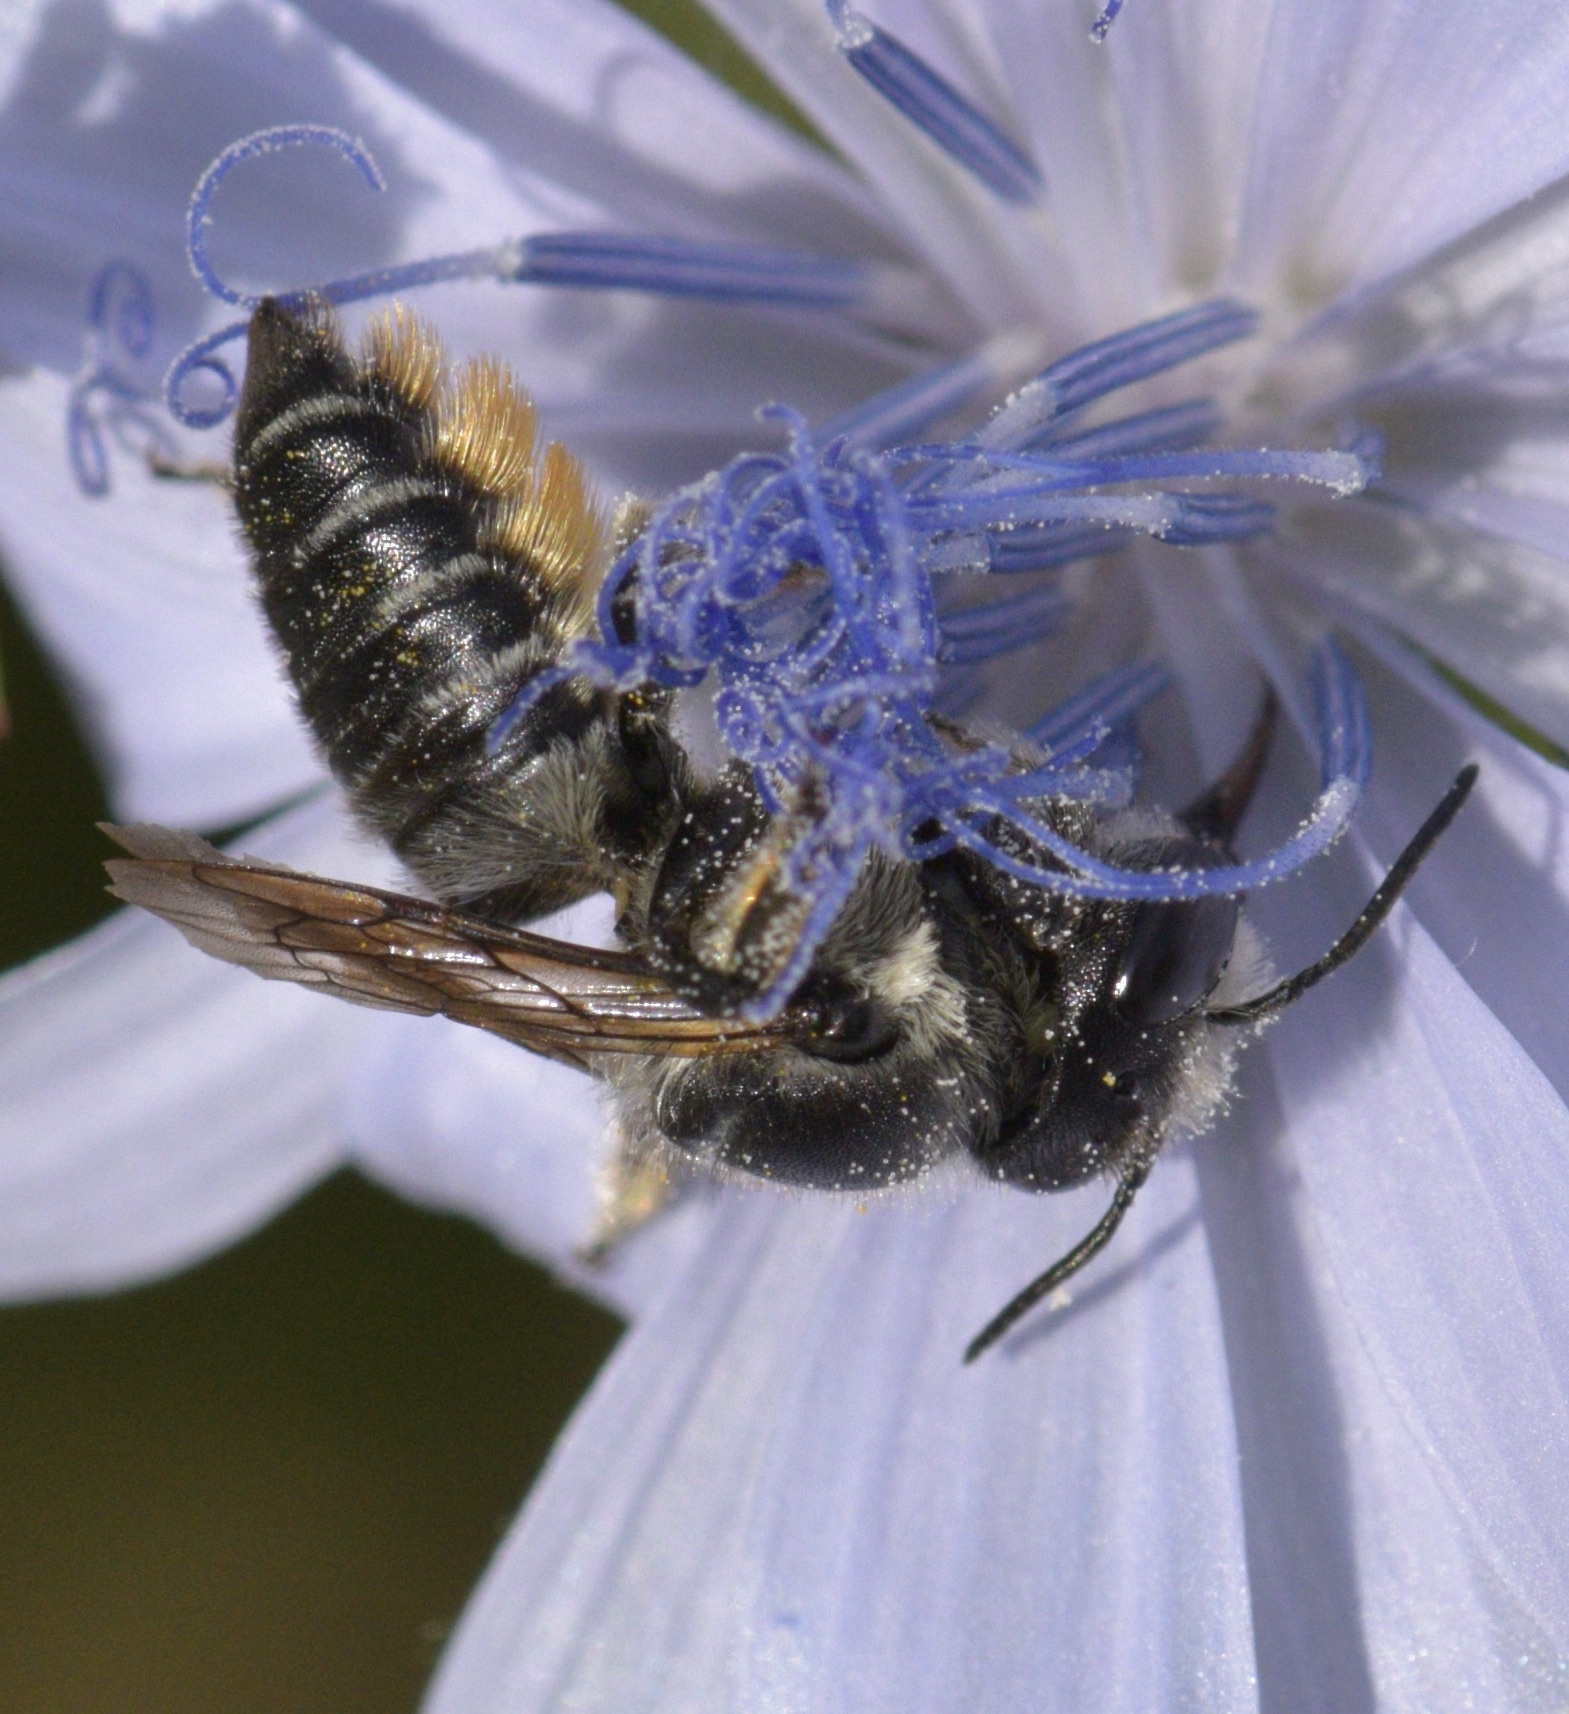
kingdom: Animalia
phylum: Arthropoda
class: Insecta
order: Hymenoptera
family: Megachilidae
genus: Megachile
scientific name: Megachile mendica
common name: Flat-tailed leafcutter
